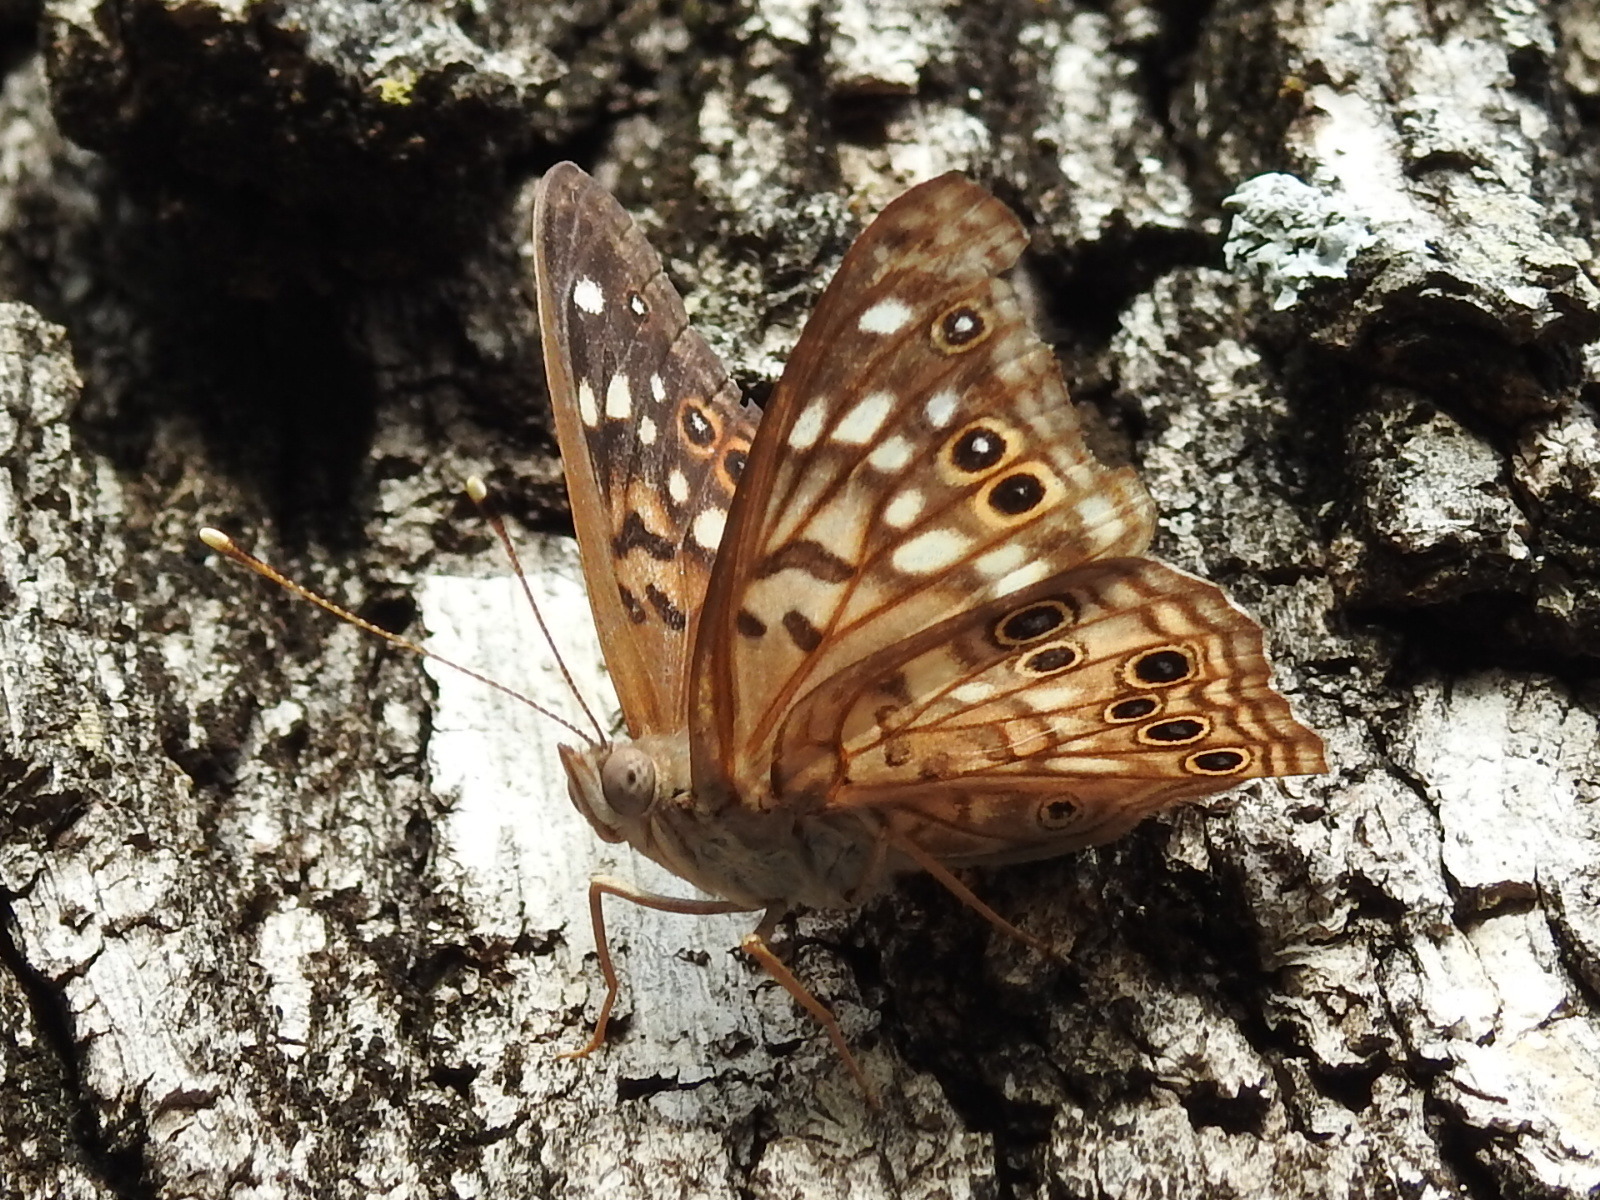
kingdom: Animalia
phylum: Arthropoda
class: Insecta
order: Lepidoptera
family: Nymphalidae
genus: Asterocampa
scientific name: Asterocampa celtis
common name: Hackberry emperor
